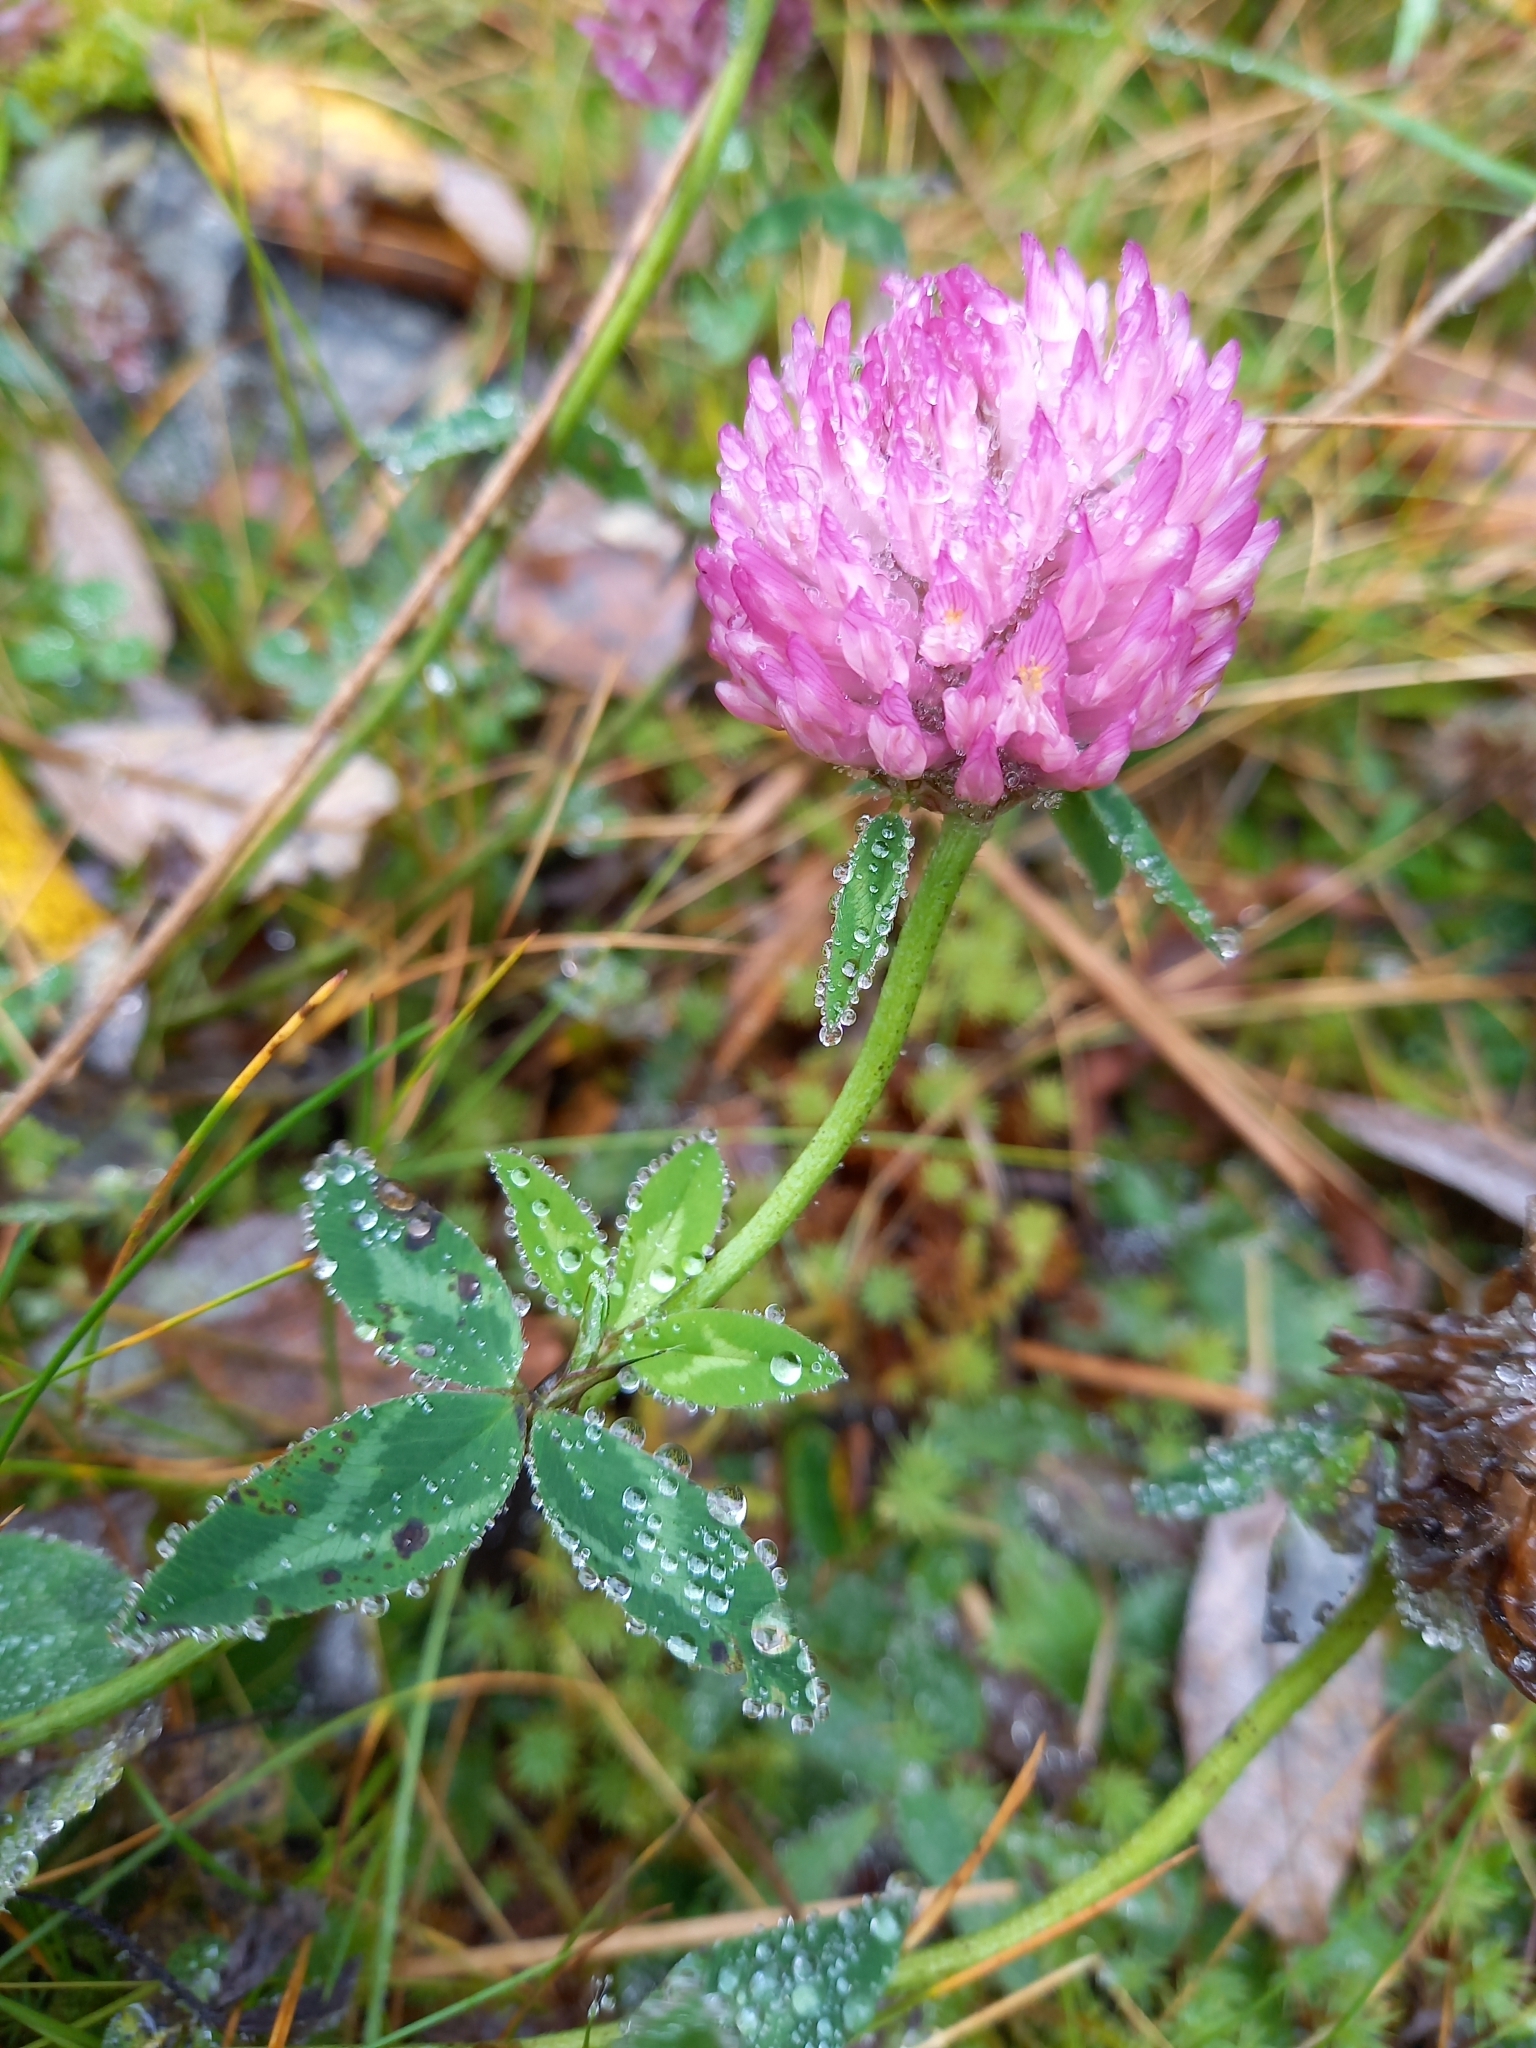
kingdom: Plantae
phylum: Tracheophyta
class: Magnoliopsida
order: Fabales
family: Fabaceae
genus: Trifolium
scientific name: Trifolium pratense
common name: Red clover
